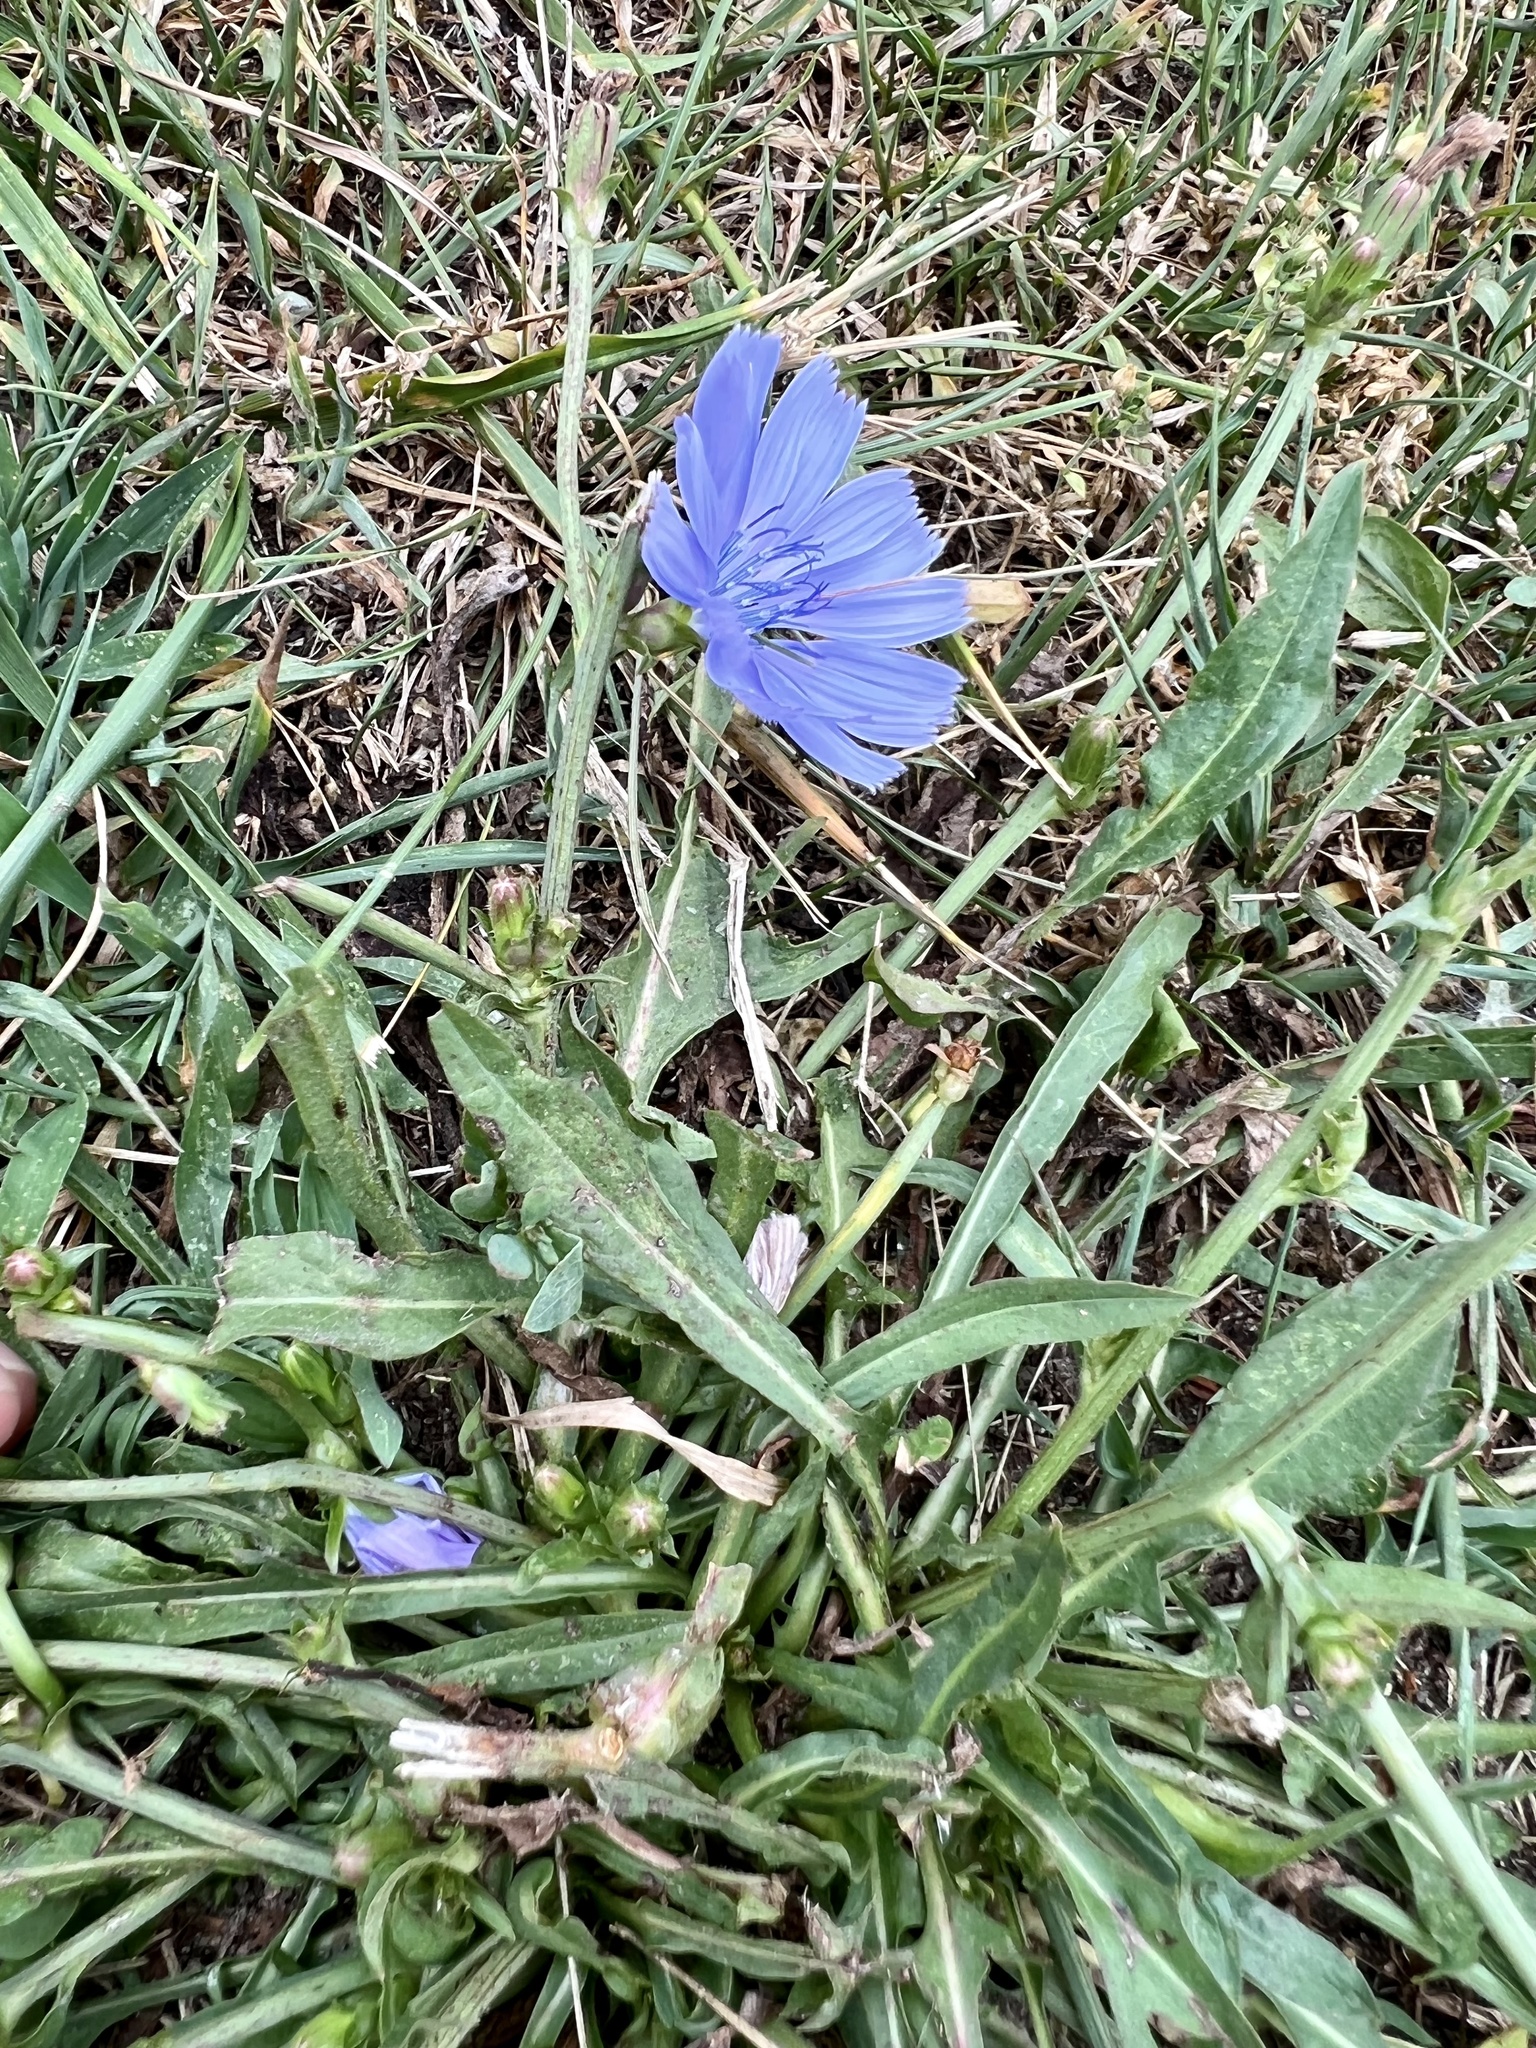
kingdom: Plantae
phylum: Tracheophyta
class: Magnoliopsida
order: Asterales
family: Asteraceae
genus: Cichorium
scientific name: Cichorium intybus
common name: Chicory
